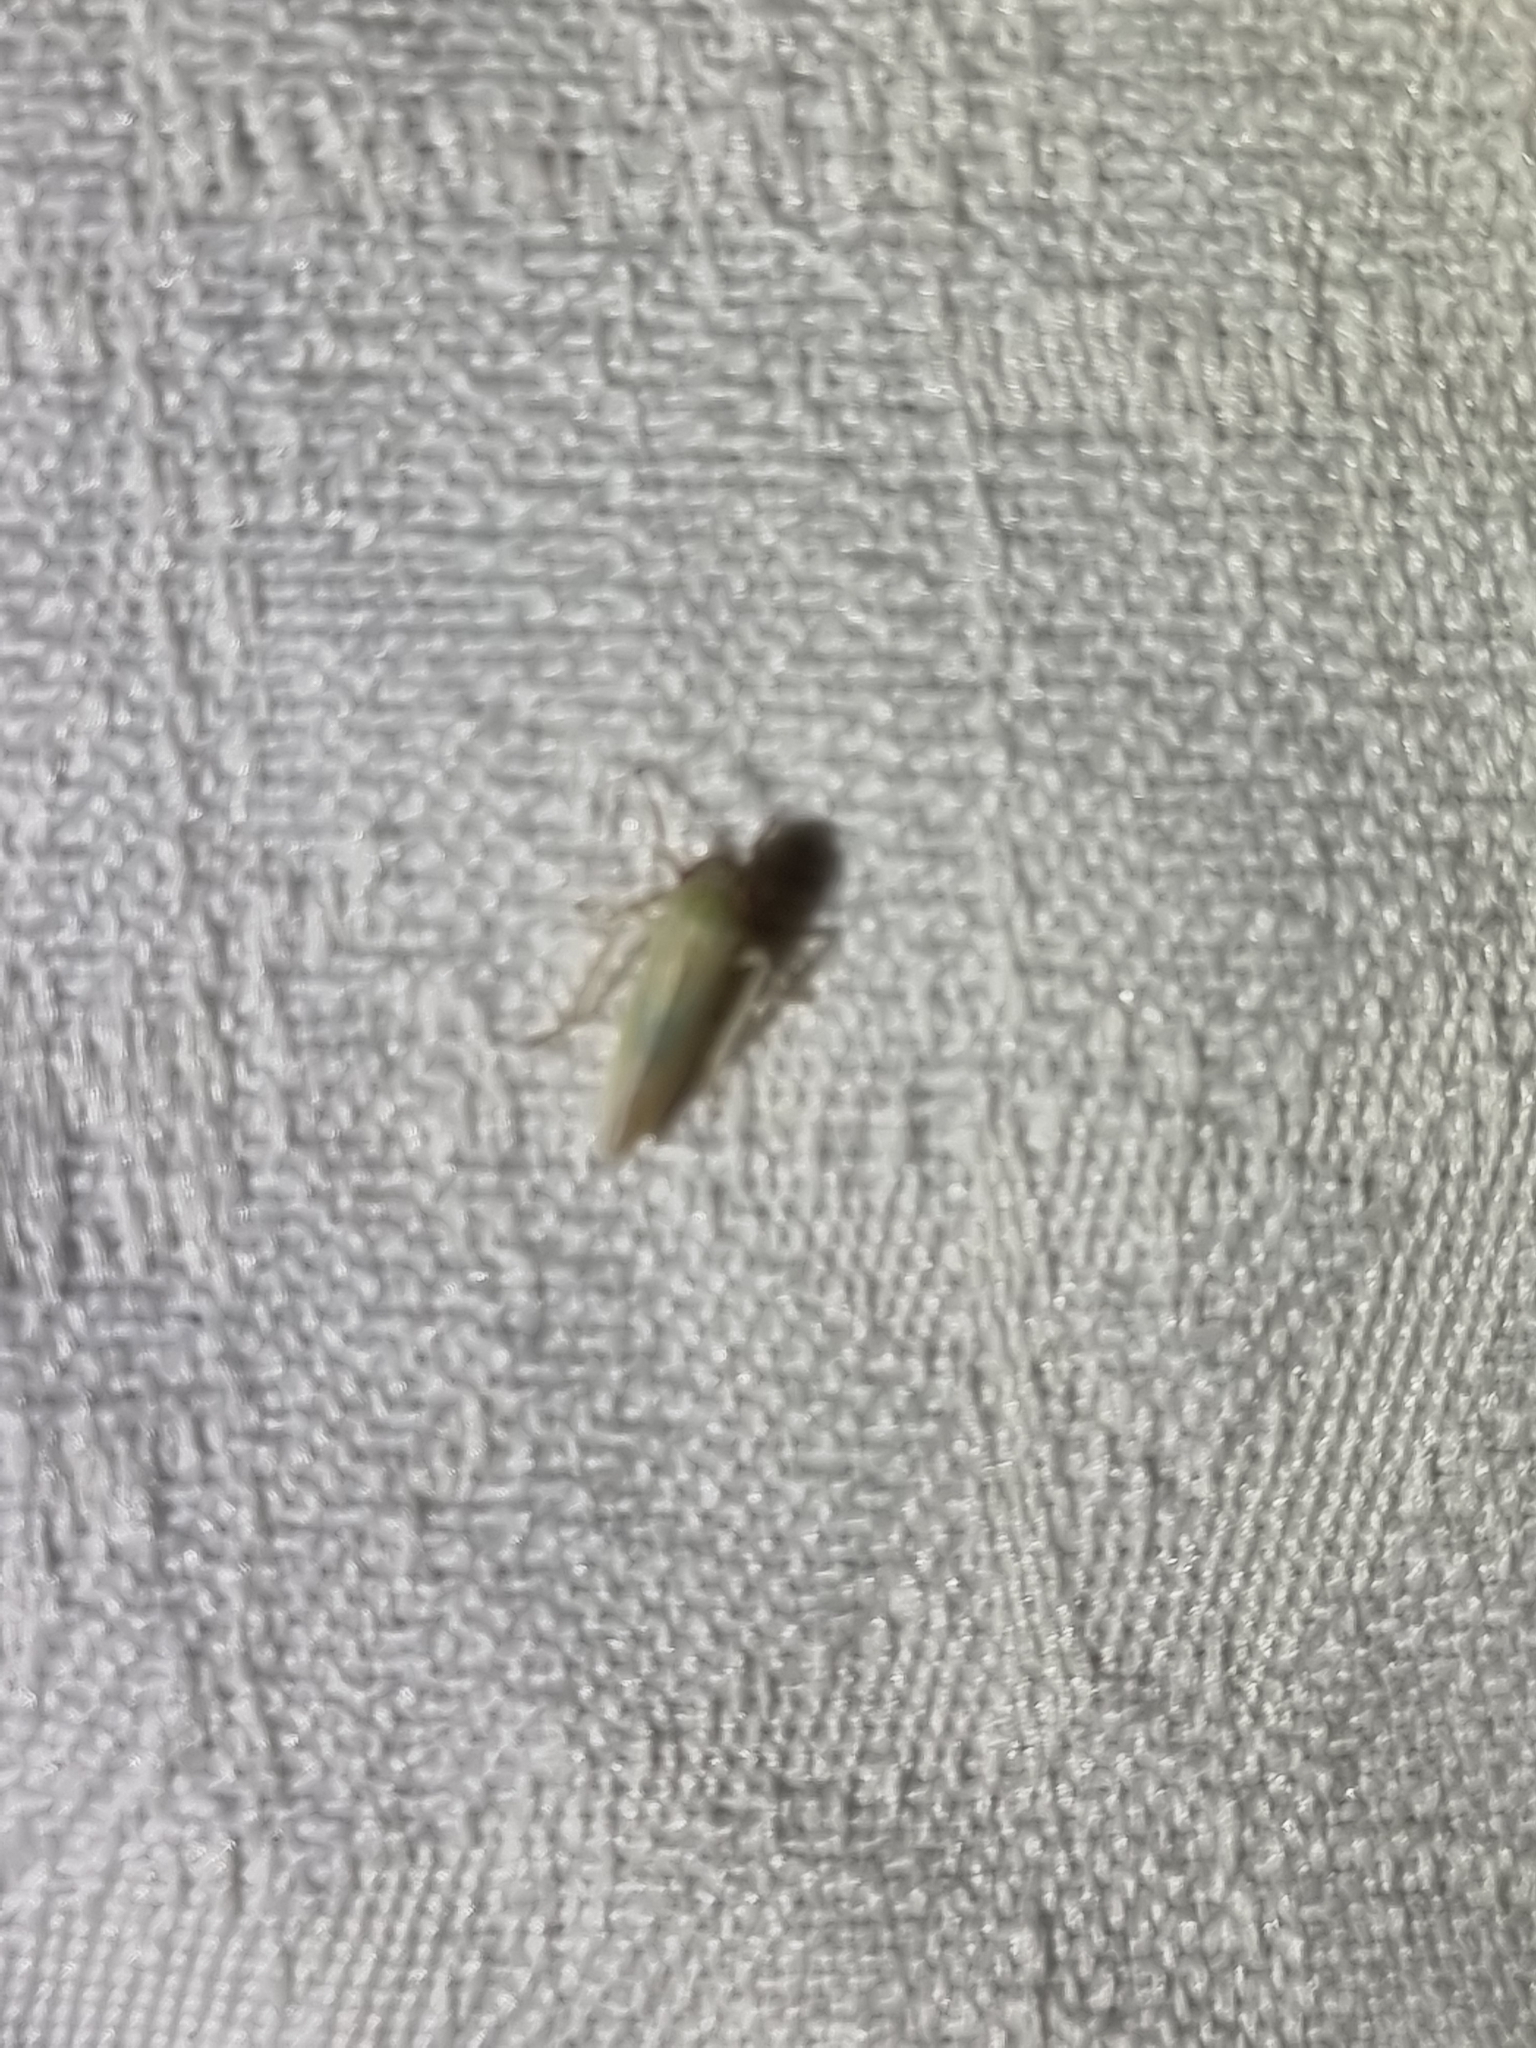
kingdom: Animalia
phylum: Arthropoda
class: Insecta
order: Hemiptera
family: Cicadellidae
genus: Cofana
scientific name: Cofana spectra
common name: White leafhopper
